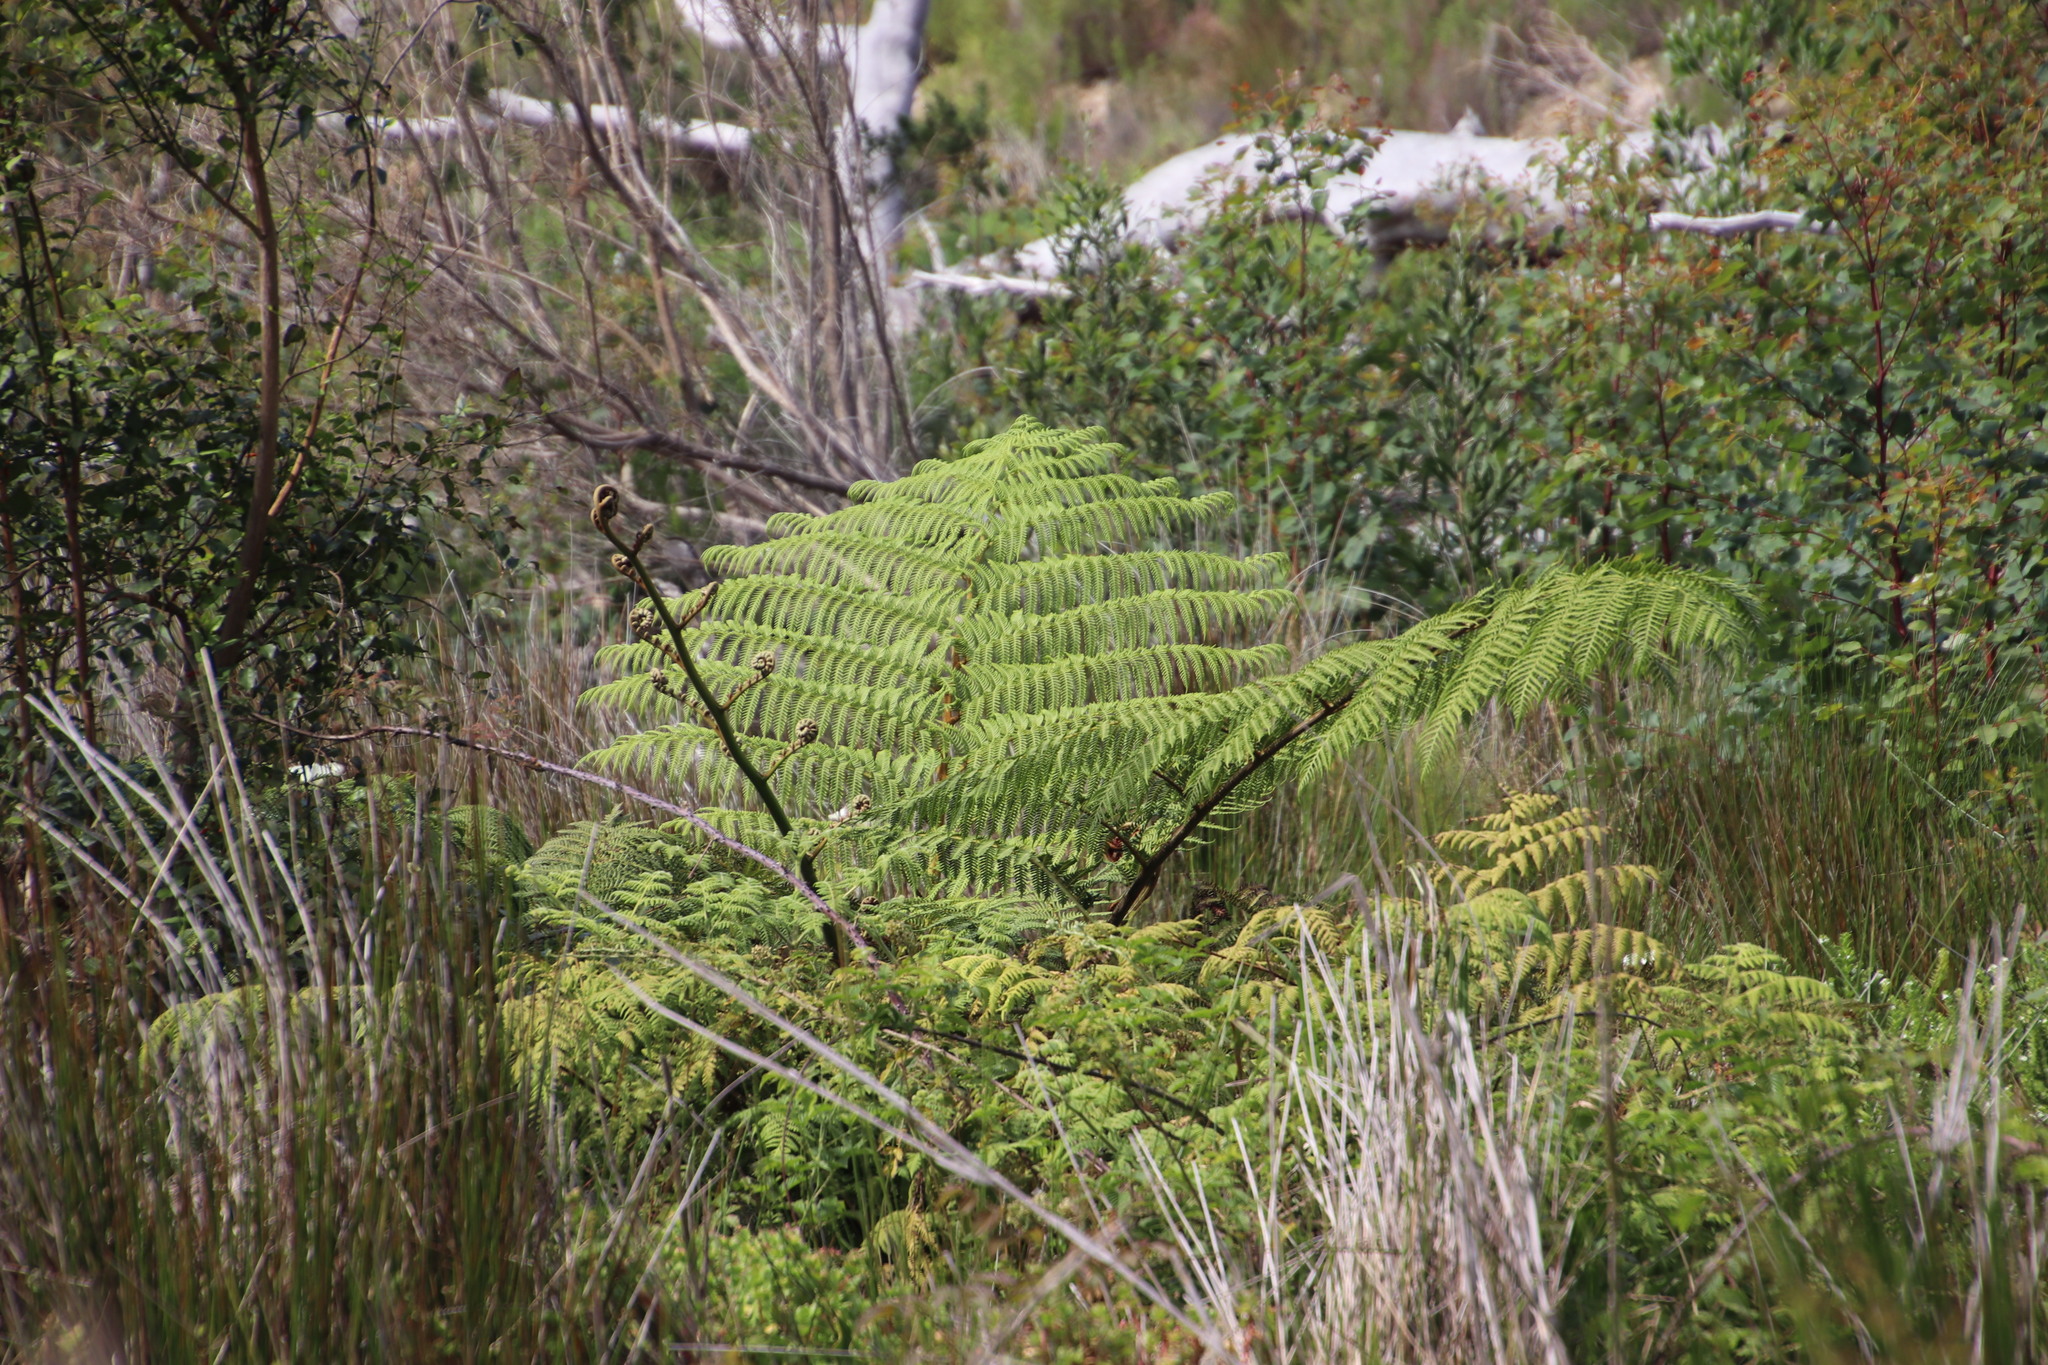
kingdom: Plantae
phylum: Tracheophyta
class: Polypodiopsida
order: Cyatheales
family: Cyatheaceae
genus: Sphaeropteris
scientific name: Sphaeropteris cooperi
